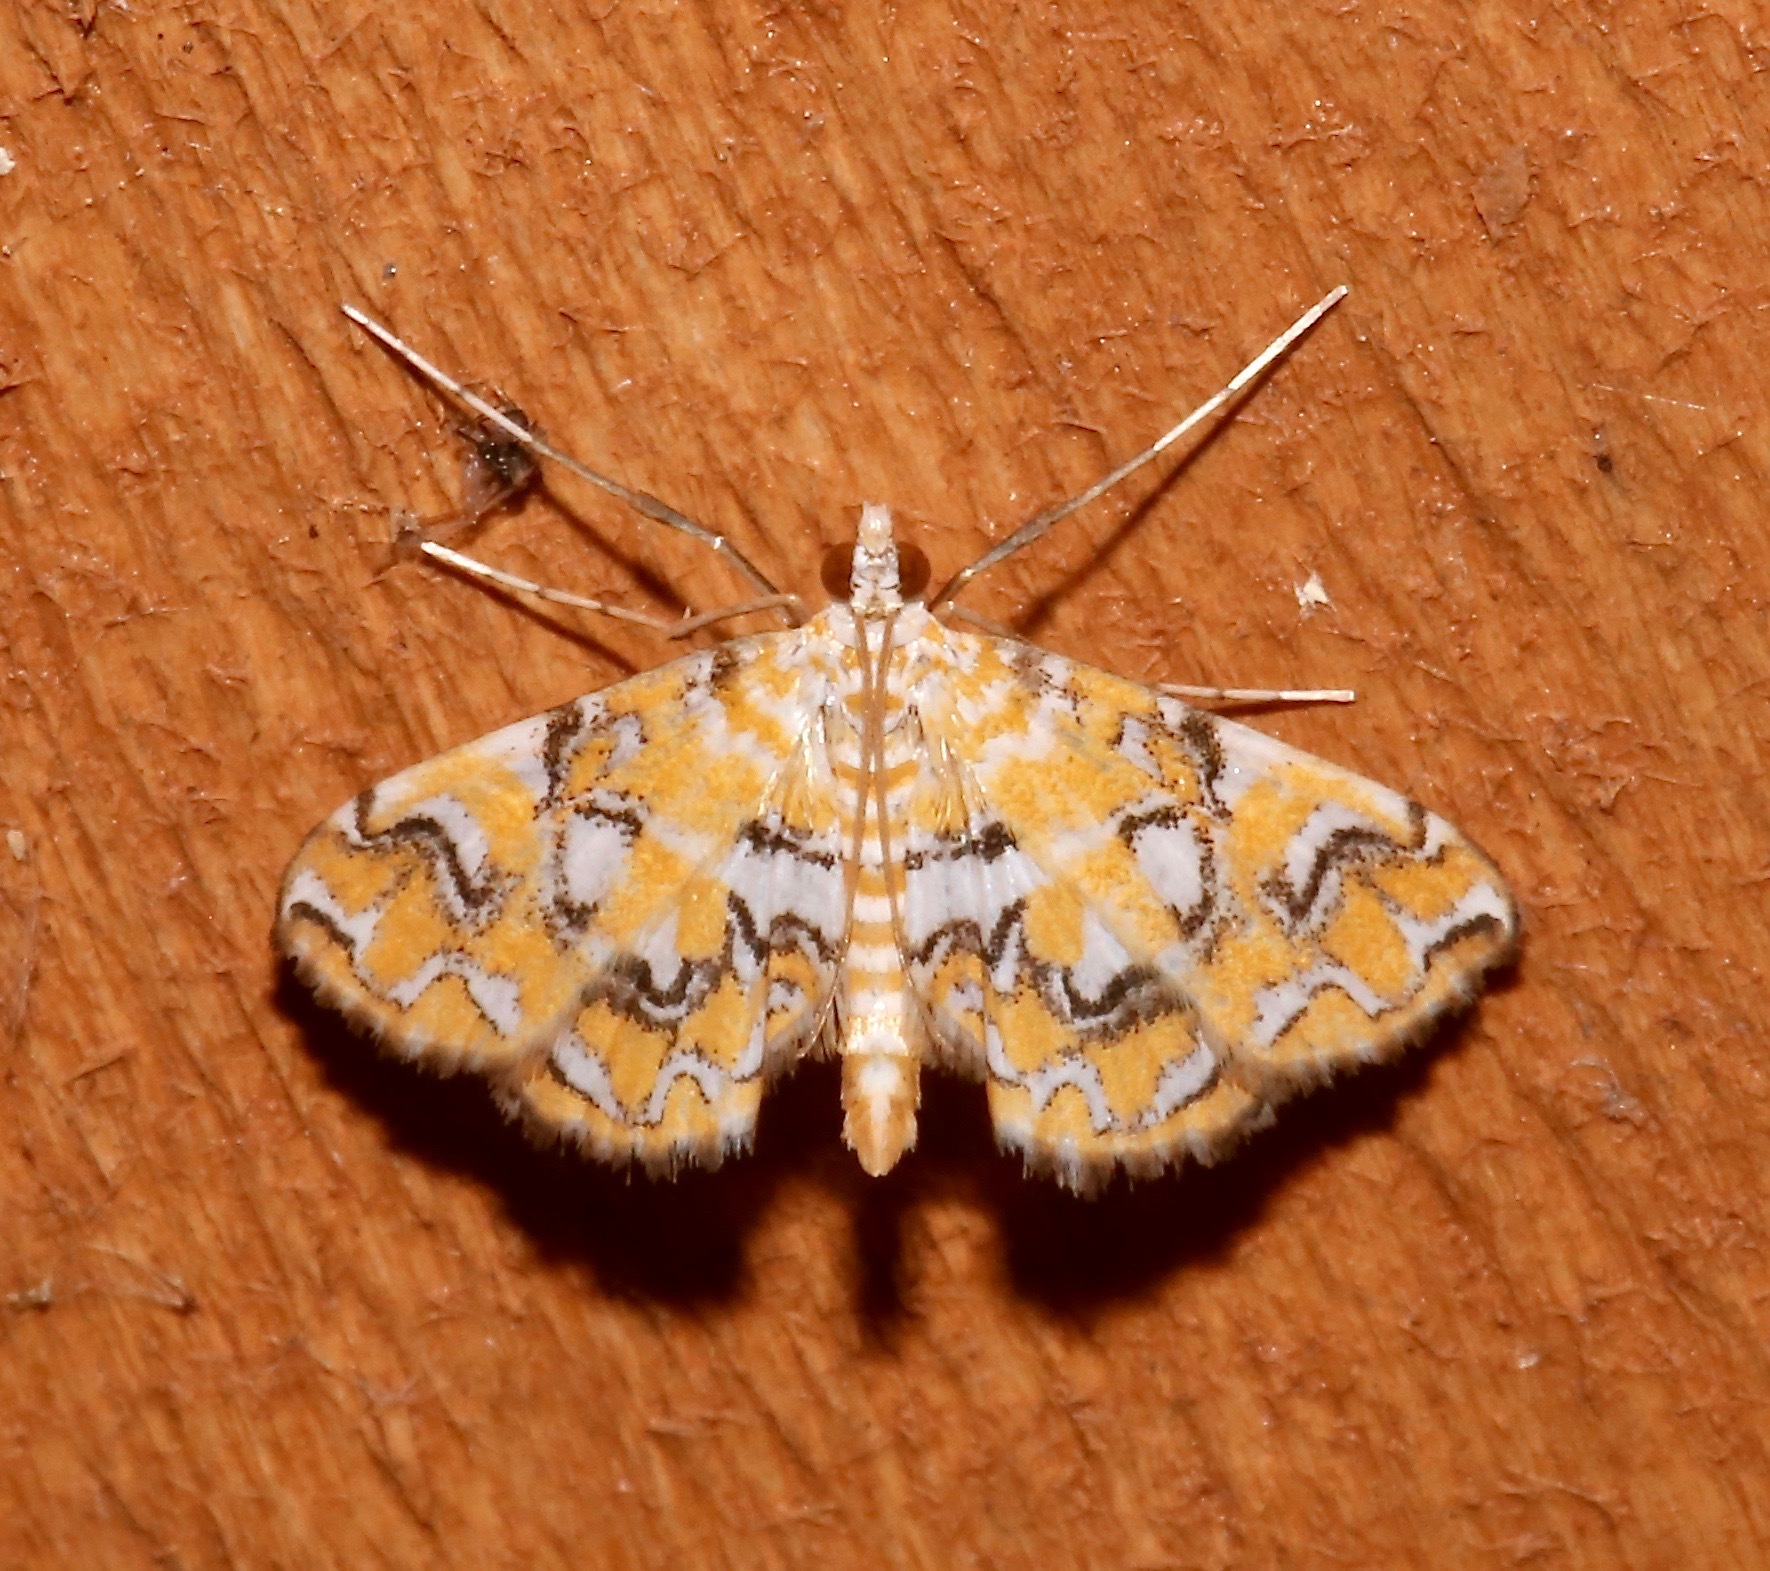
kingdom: Animalia
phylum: Arthropoda
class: Insecta
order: Lepidoptera
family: Crambidae
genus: Elophila
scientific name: Elophila icciusalis
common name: Pondside pyralid moth
